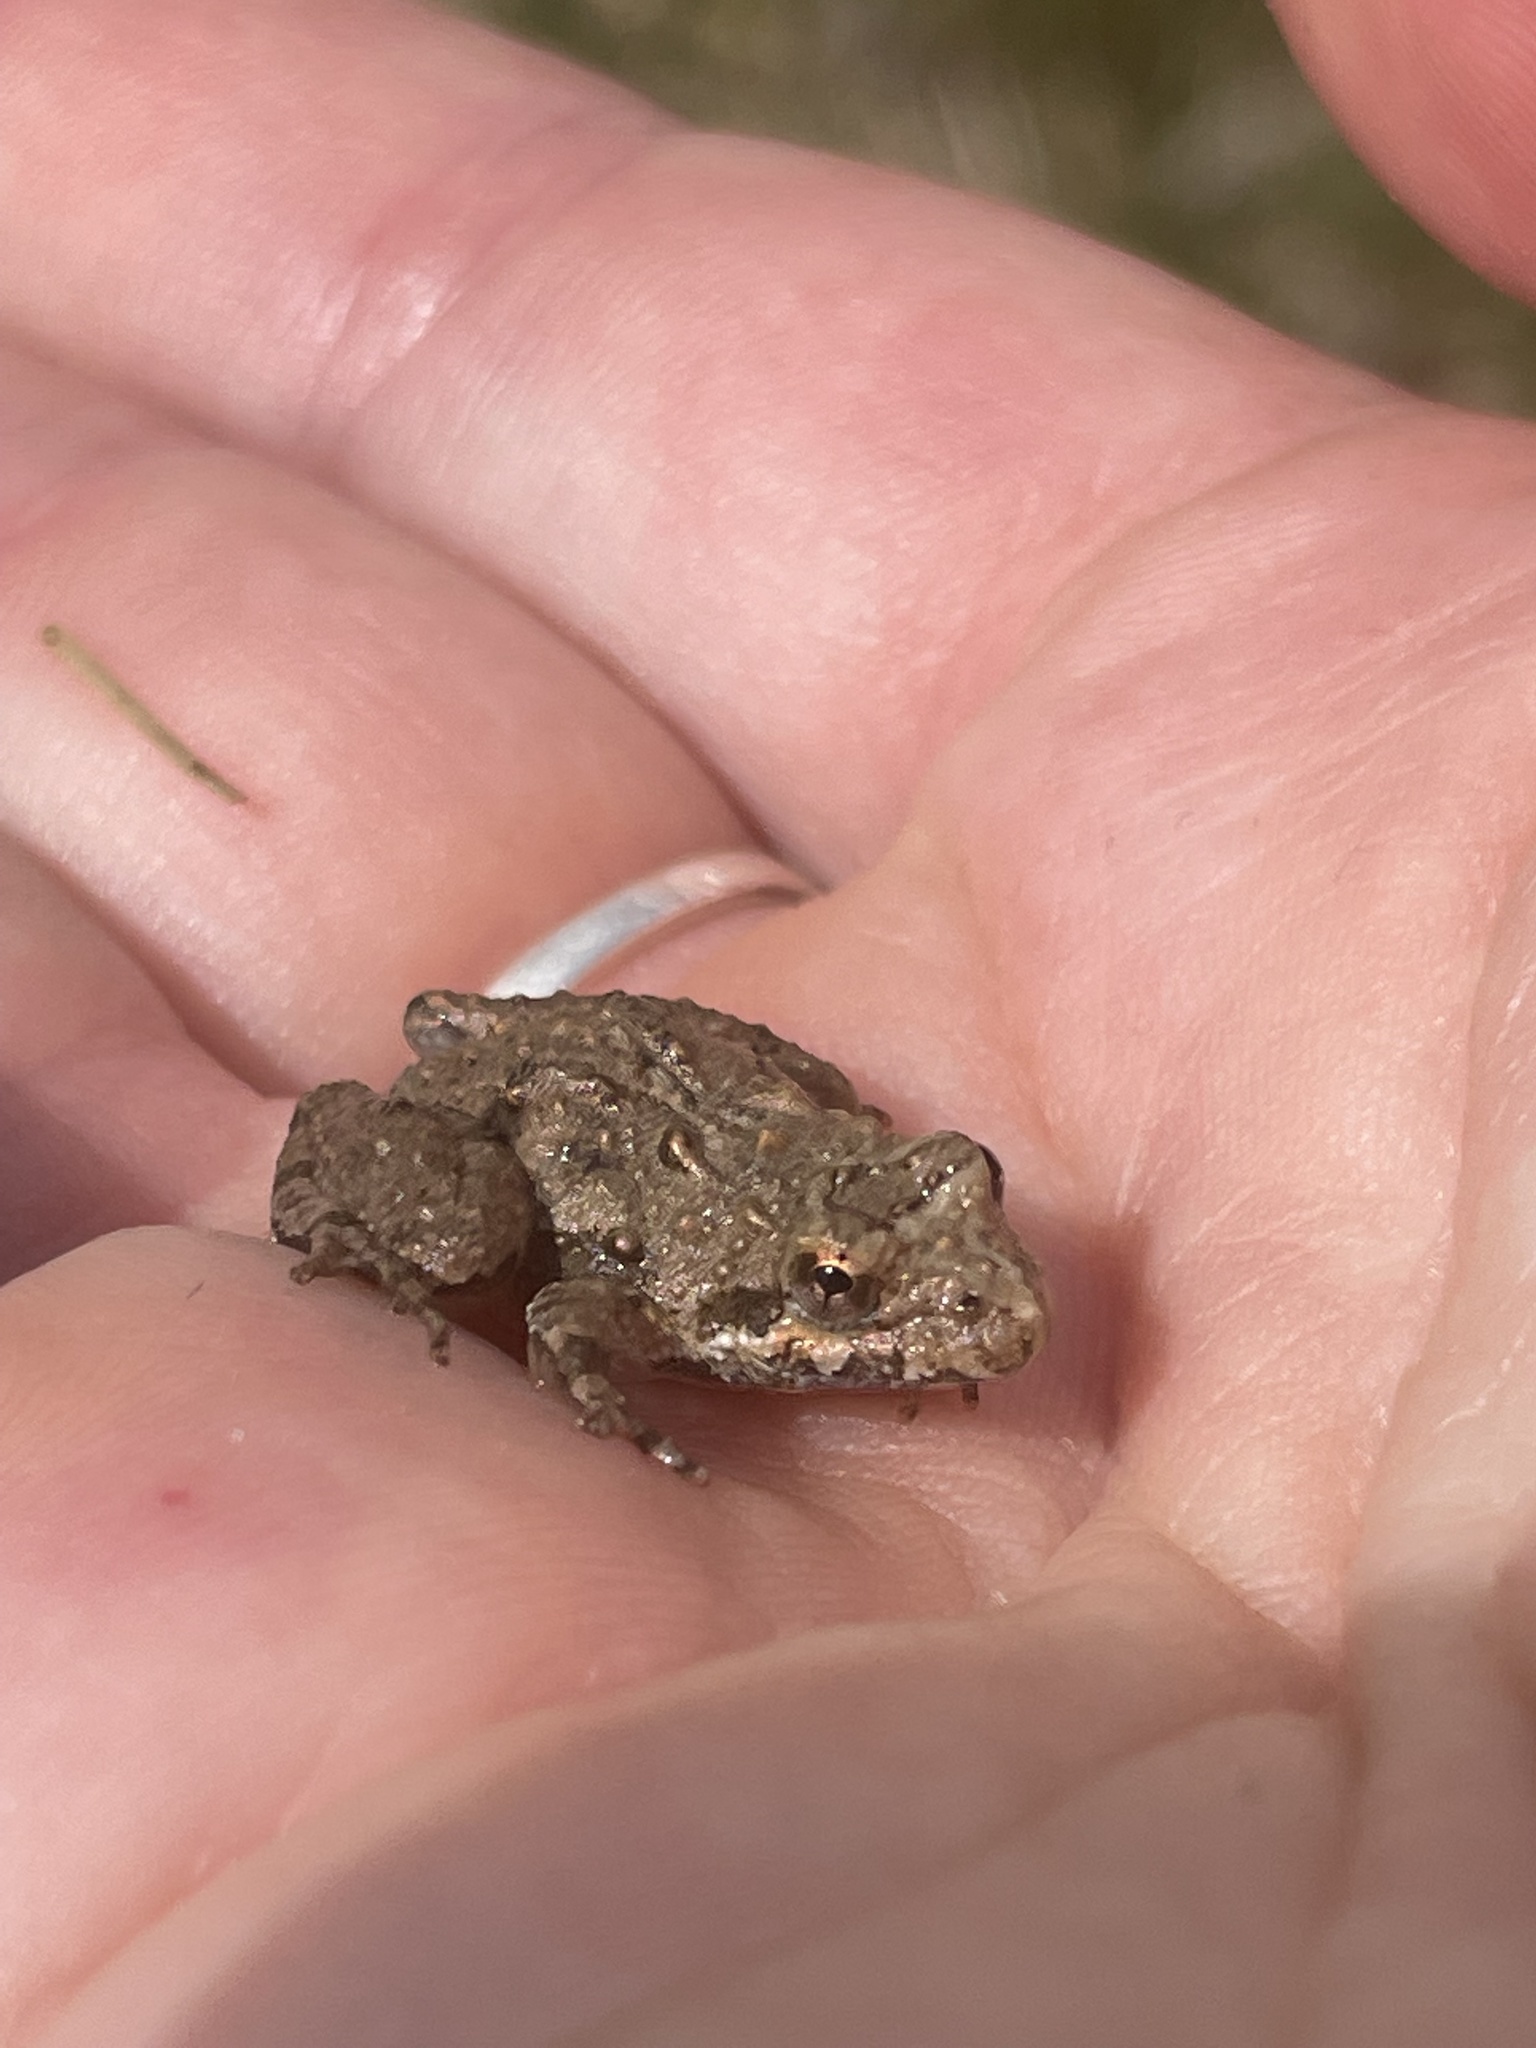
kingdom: Animalia
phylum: Chordata
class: Amphibia
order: Anura
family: Hylidae
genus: Acris
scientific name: Acris crepitans
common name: Northern cricket frog
